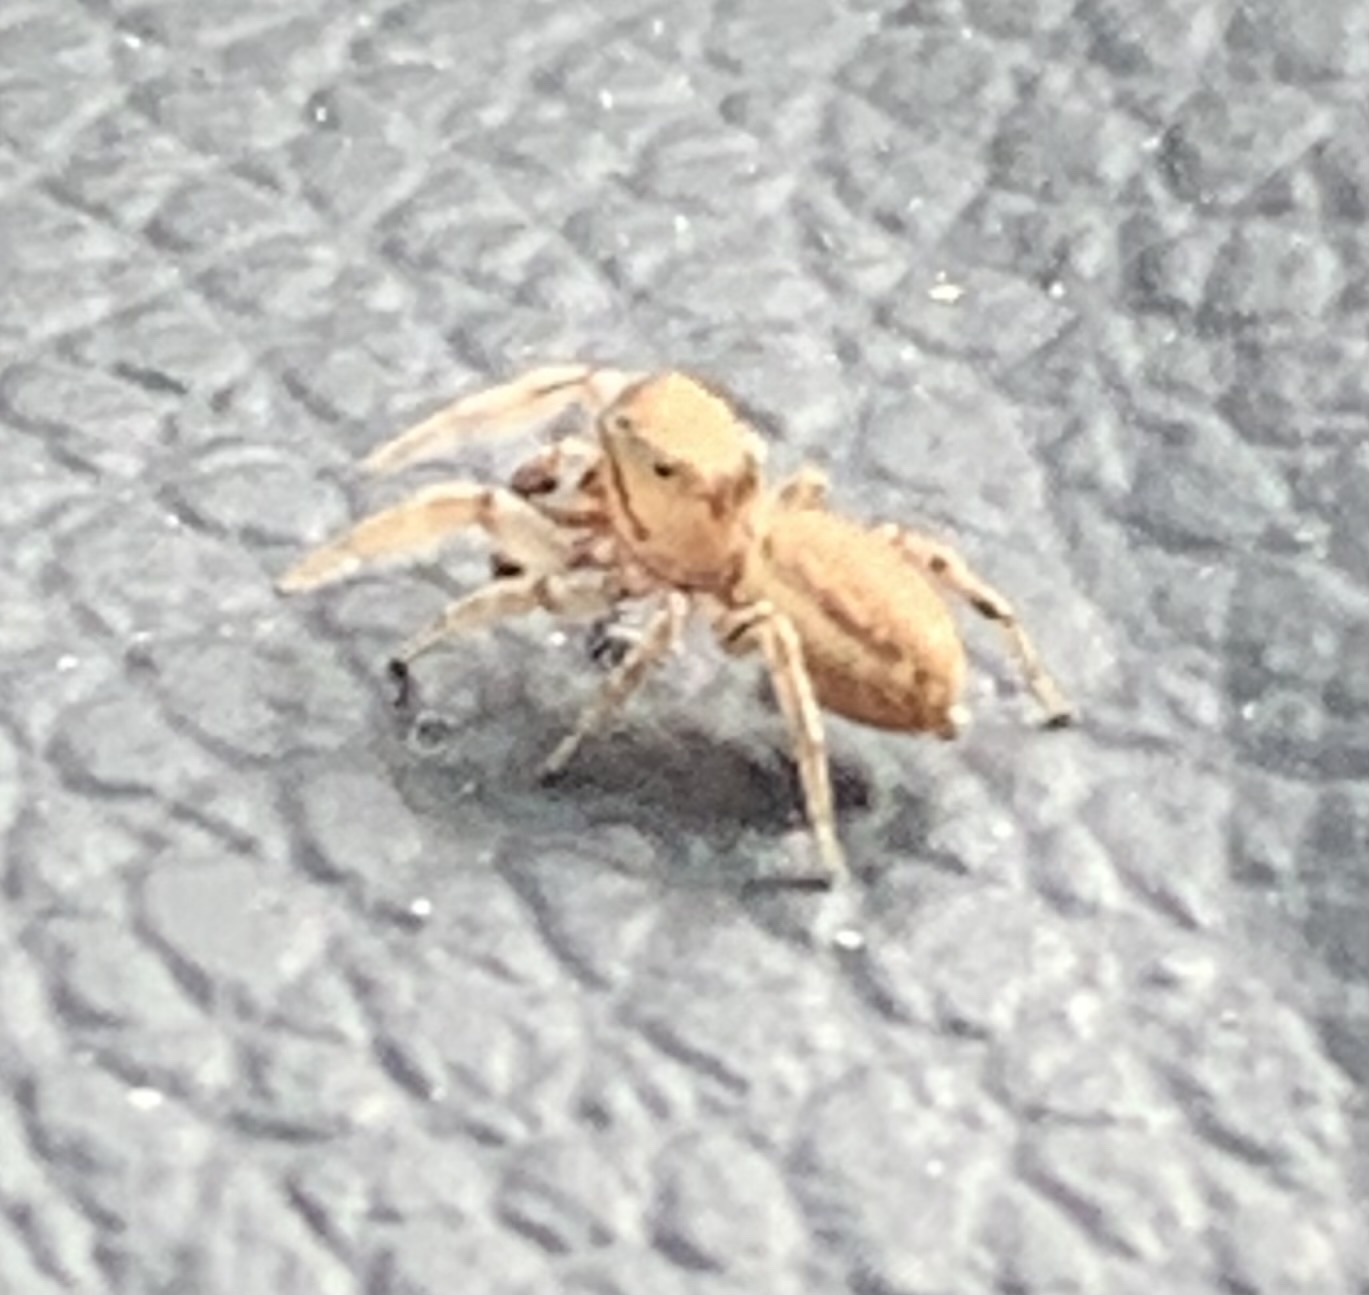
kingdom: Animalia
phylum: Arthropoda
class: Arachnida
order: Araneae
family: Salticidae
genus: Pelegrina
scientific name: Pelegrina flaviceps
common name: Big-headed white-cheeked jumping spider
